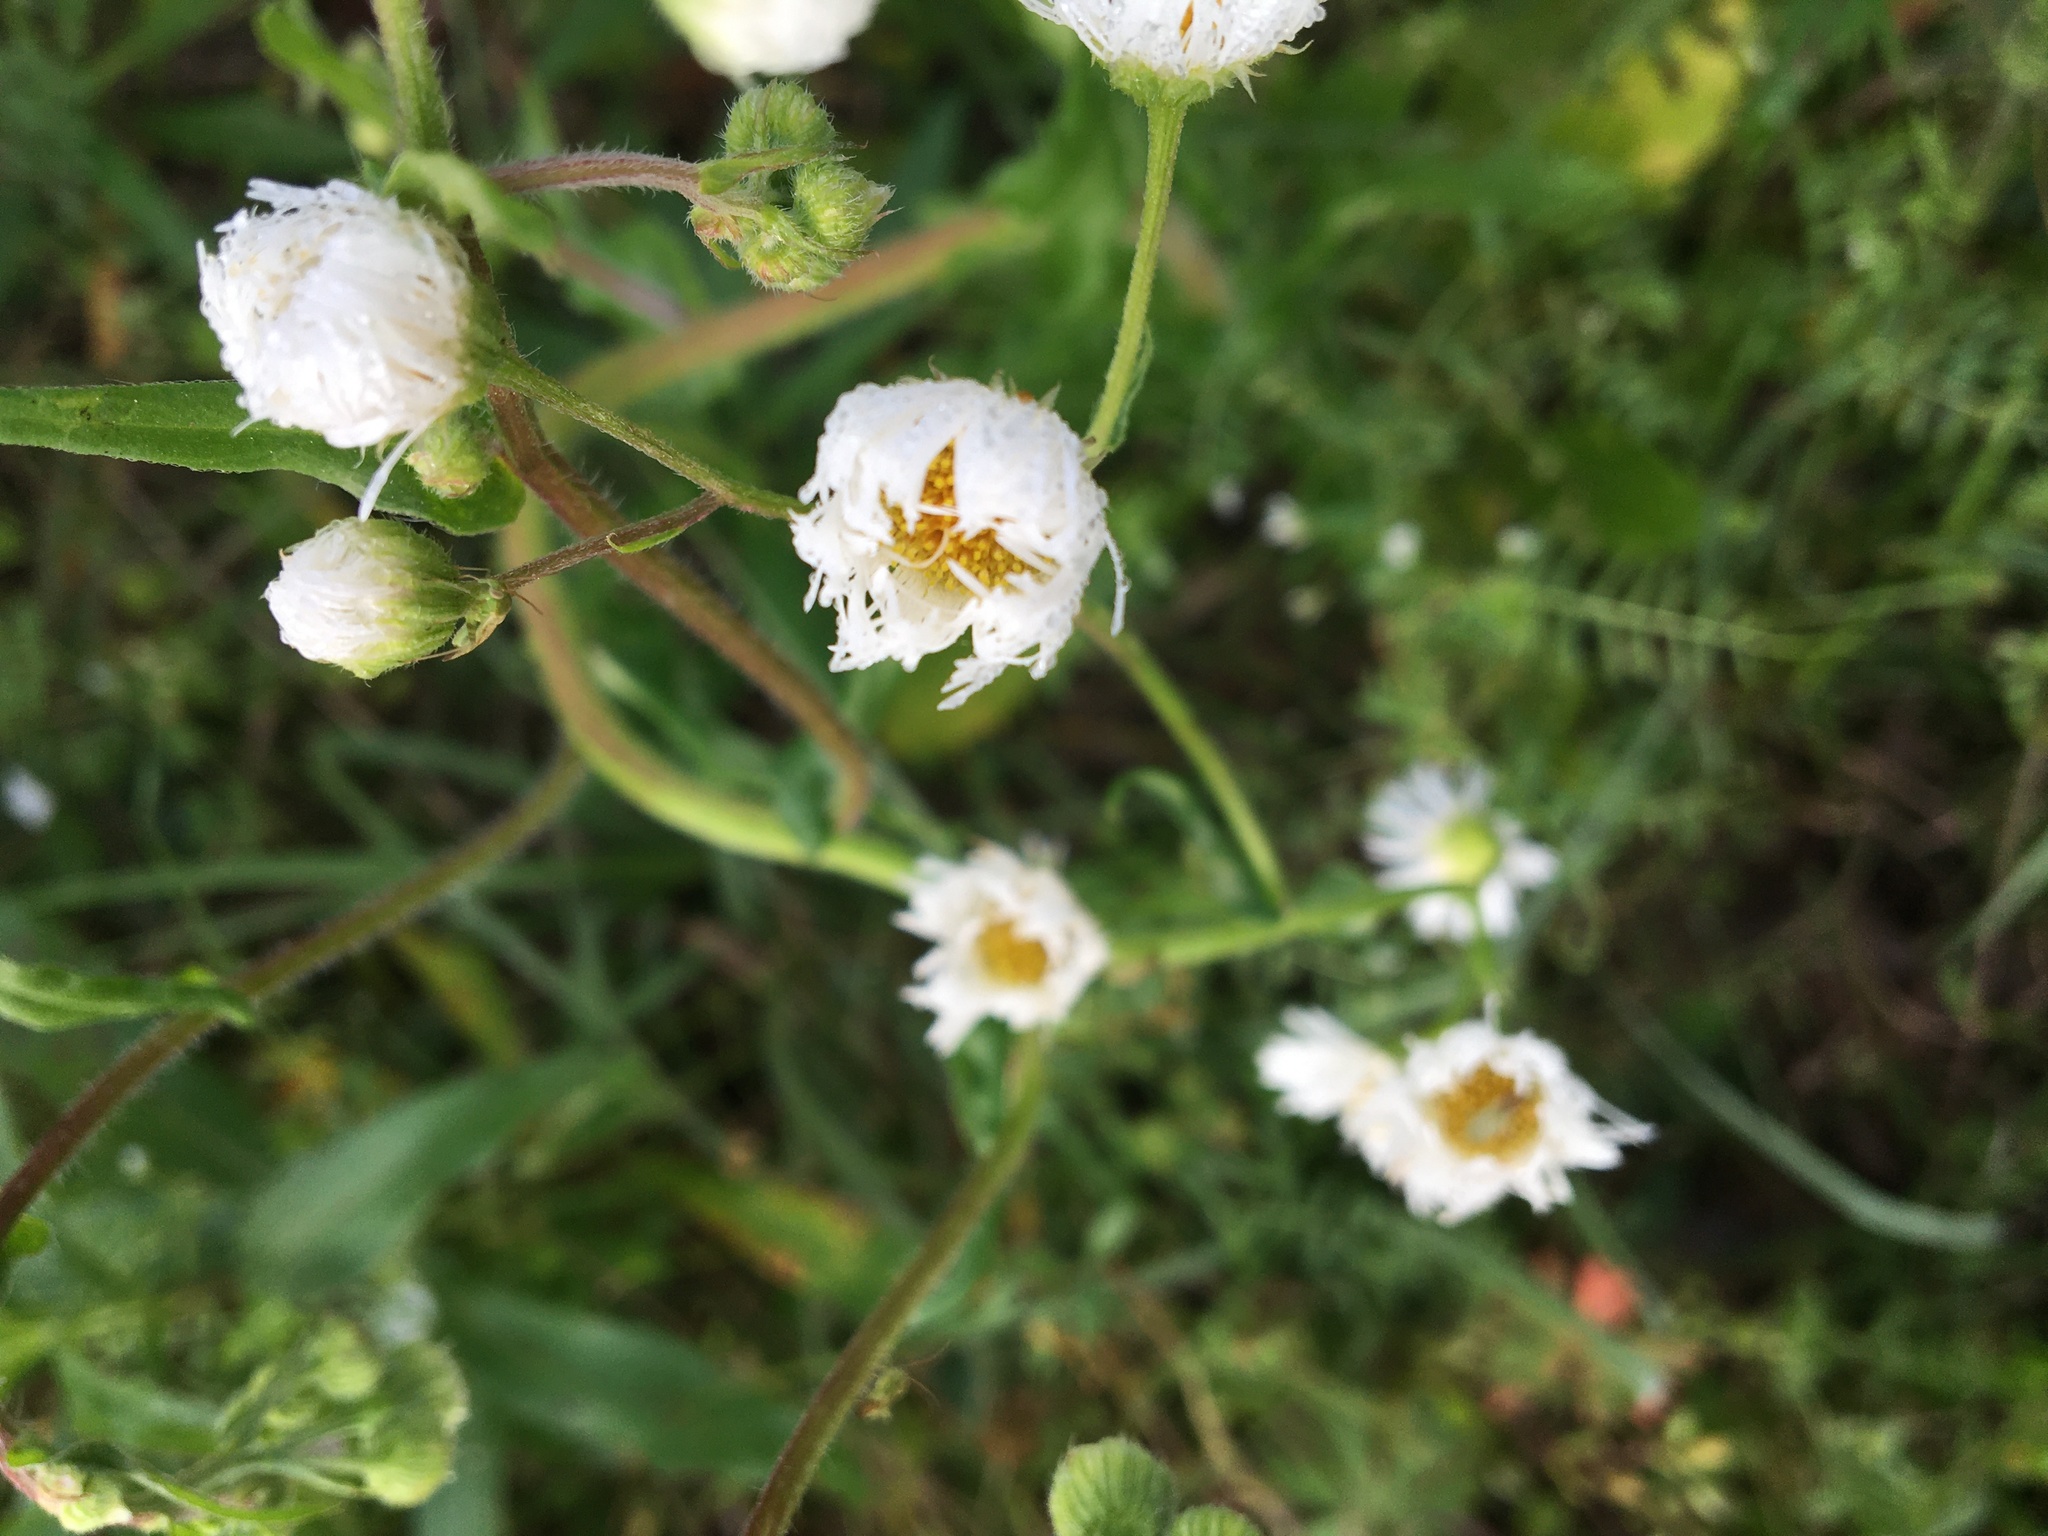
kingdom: Plantae
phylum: Tracheophyta
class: Magnoliopsida
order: Asterales
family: Asteraceae
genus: Erigeron
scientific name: Erigeron philadelphicus
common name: Robin's-plantain
